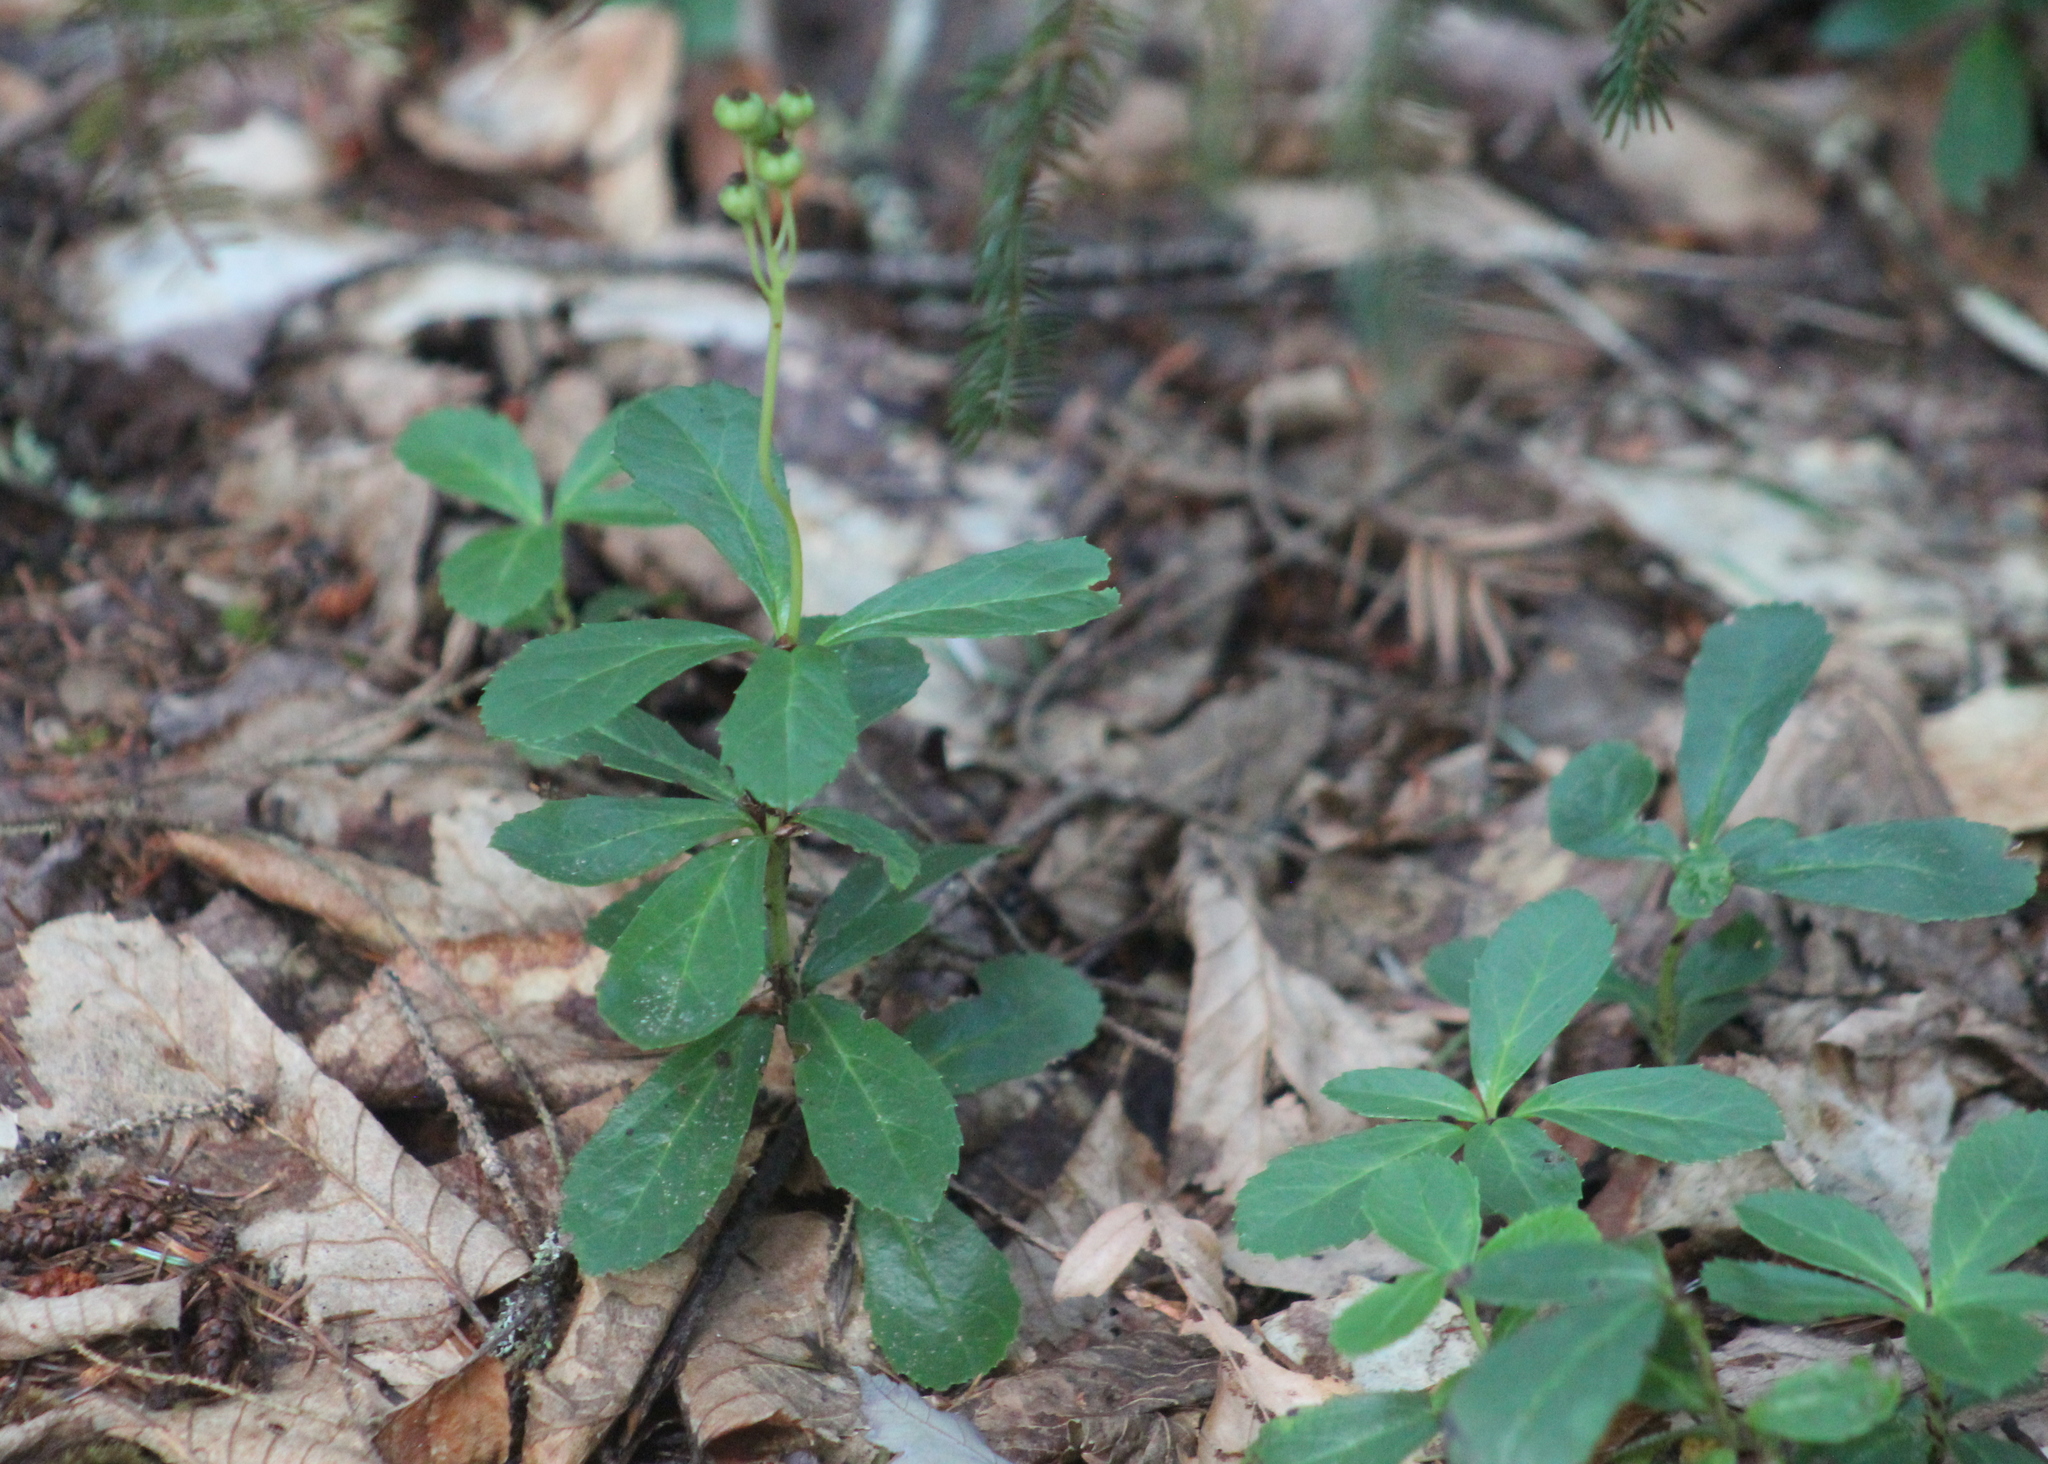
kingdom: Plantae
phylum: Tracheophyta
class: Magnoliopsida
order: Ericales
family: Ericaceae
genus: Chimaphila
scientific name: Chimaphila umbellata
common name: Pipsissewa
